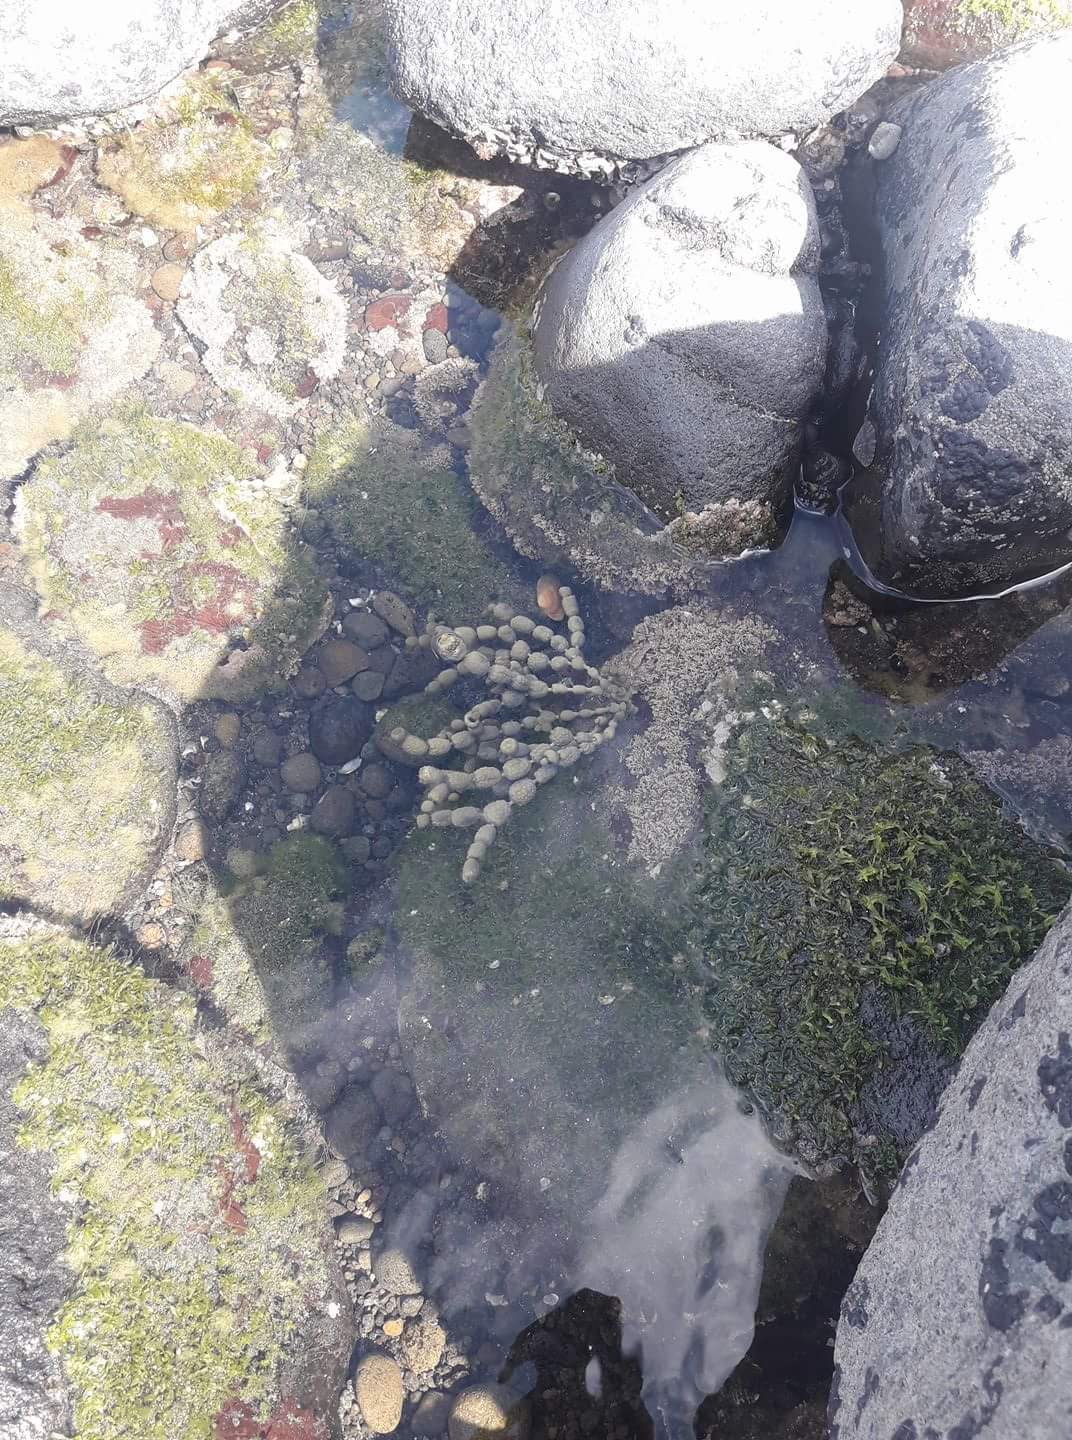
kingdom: Chromista
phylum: Ochrophyta
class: Phaeophyceae
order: Fucales
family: Hormosiraceae
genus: Hormosira
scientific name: Hormosira banksii
